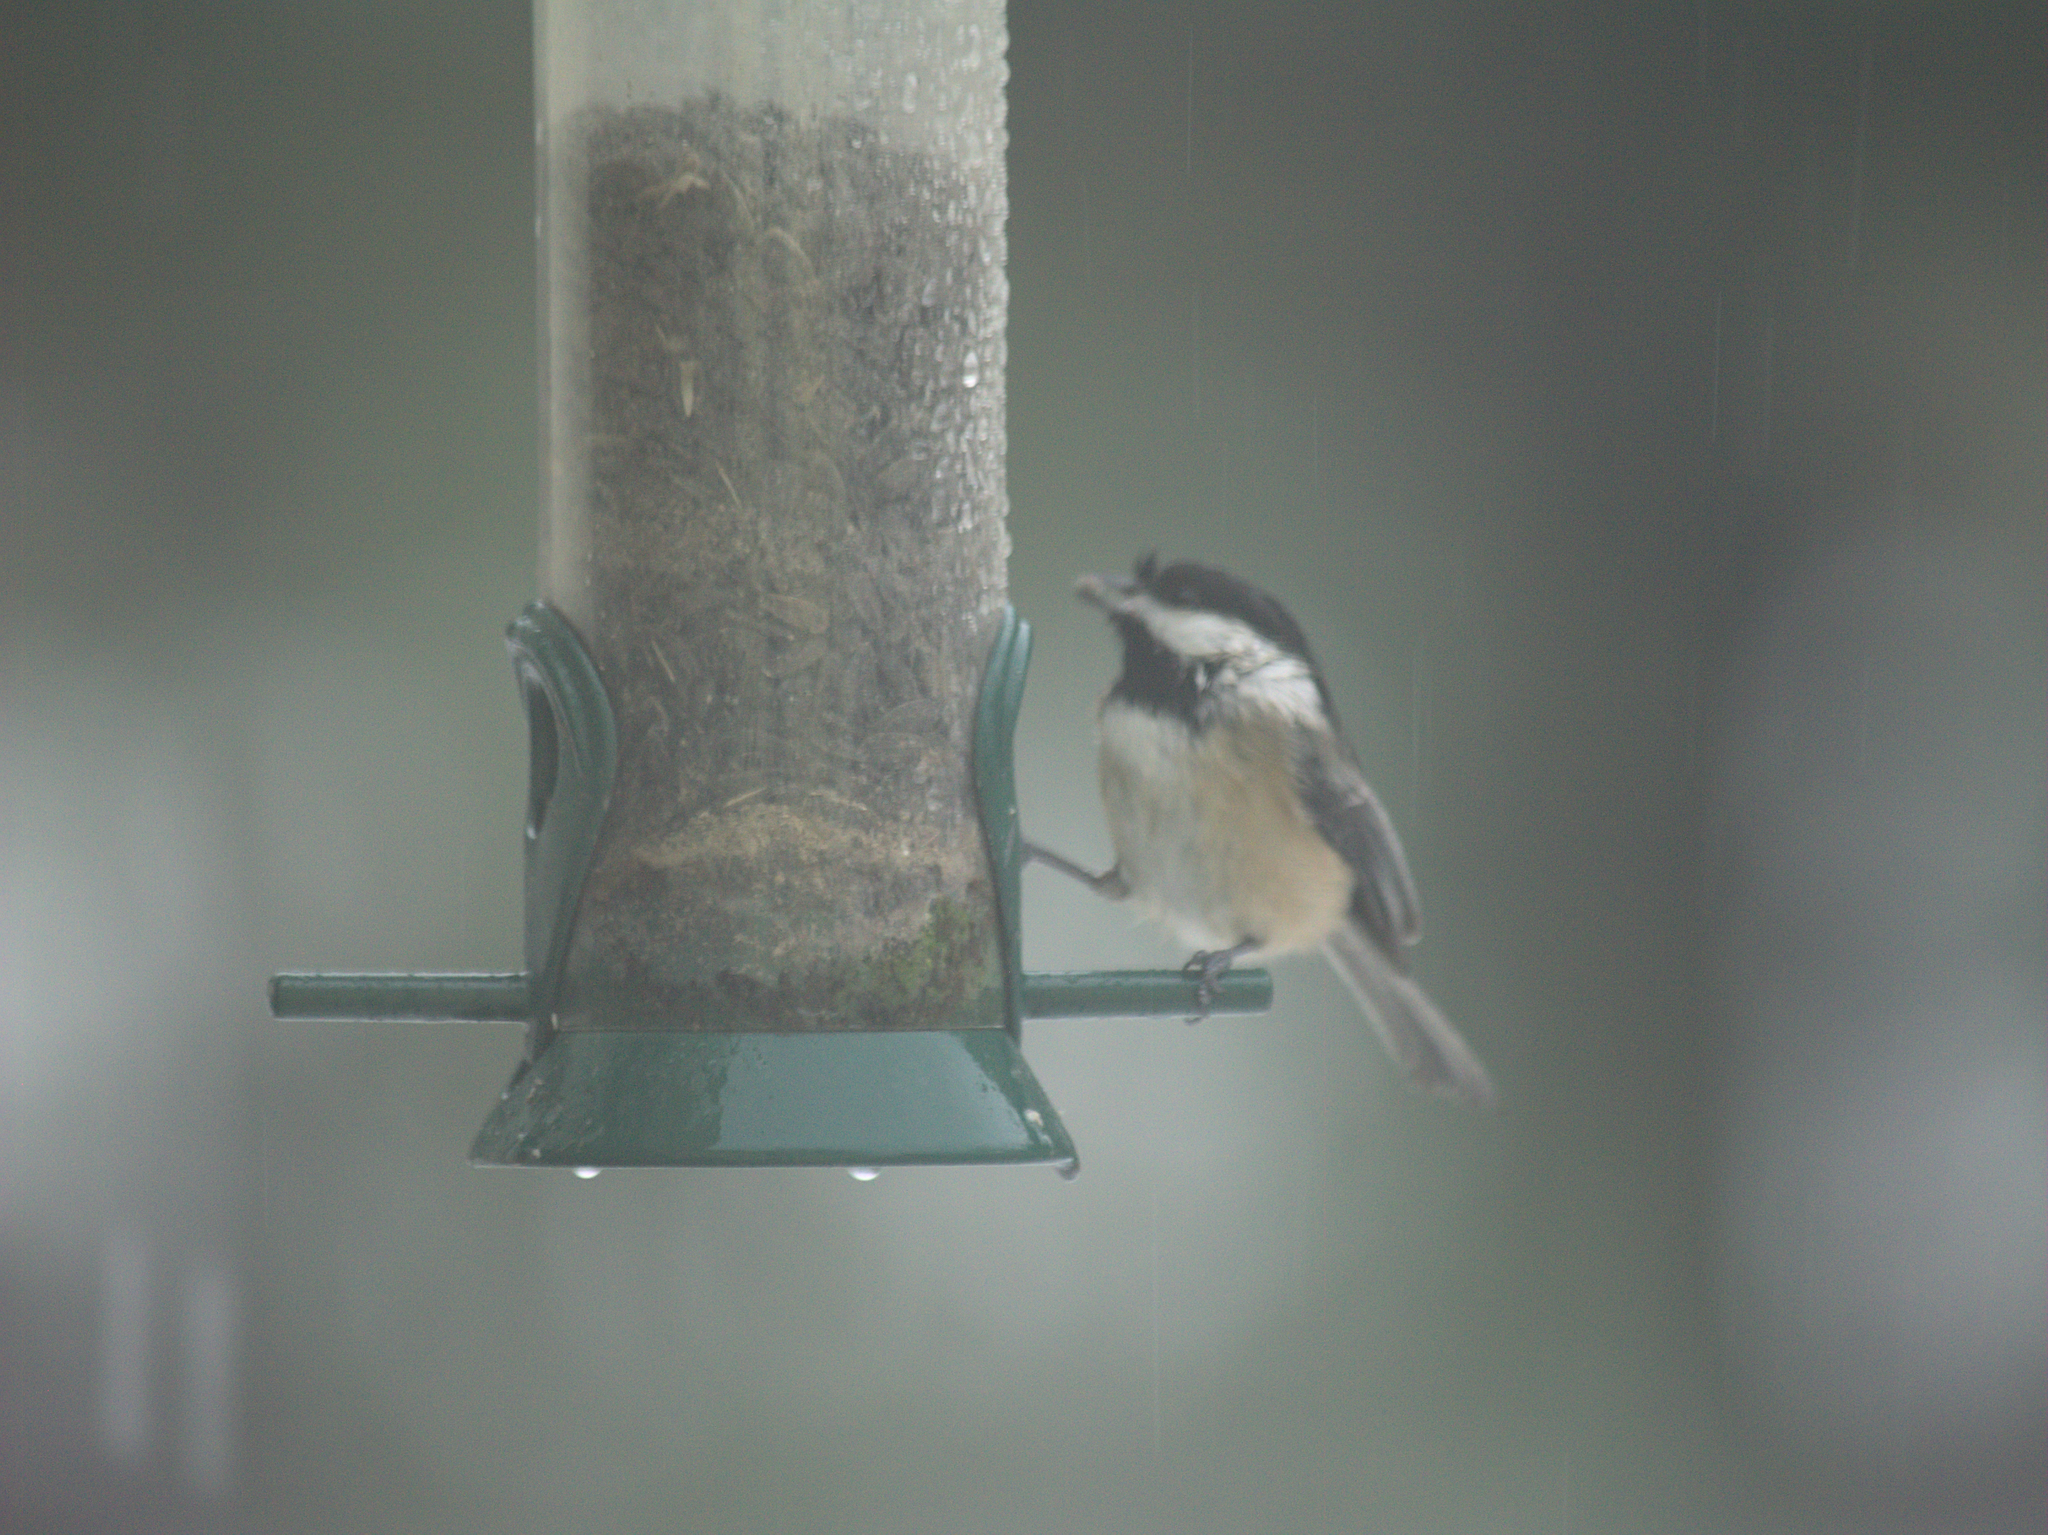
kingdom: Animalia
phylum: Chordata
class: Aves
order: Passeriformes
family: Paridae
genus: Poecile
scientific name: Poecile atricapillus
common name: Black-capped chickadee
